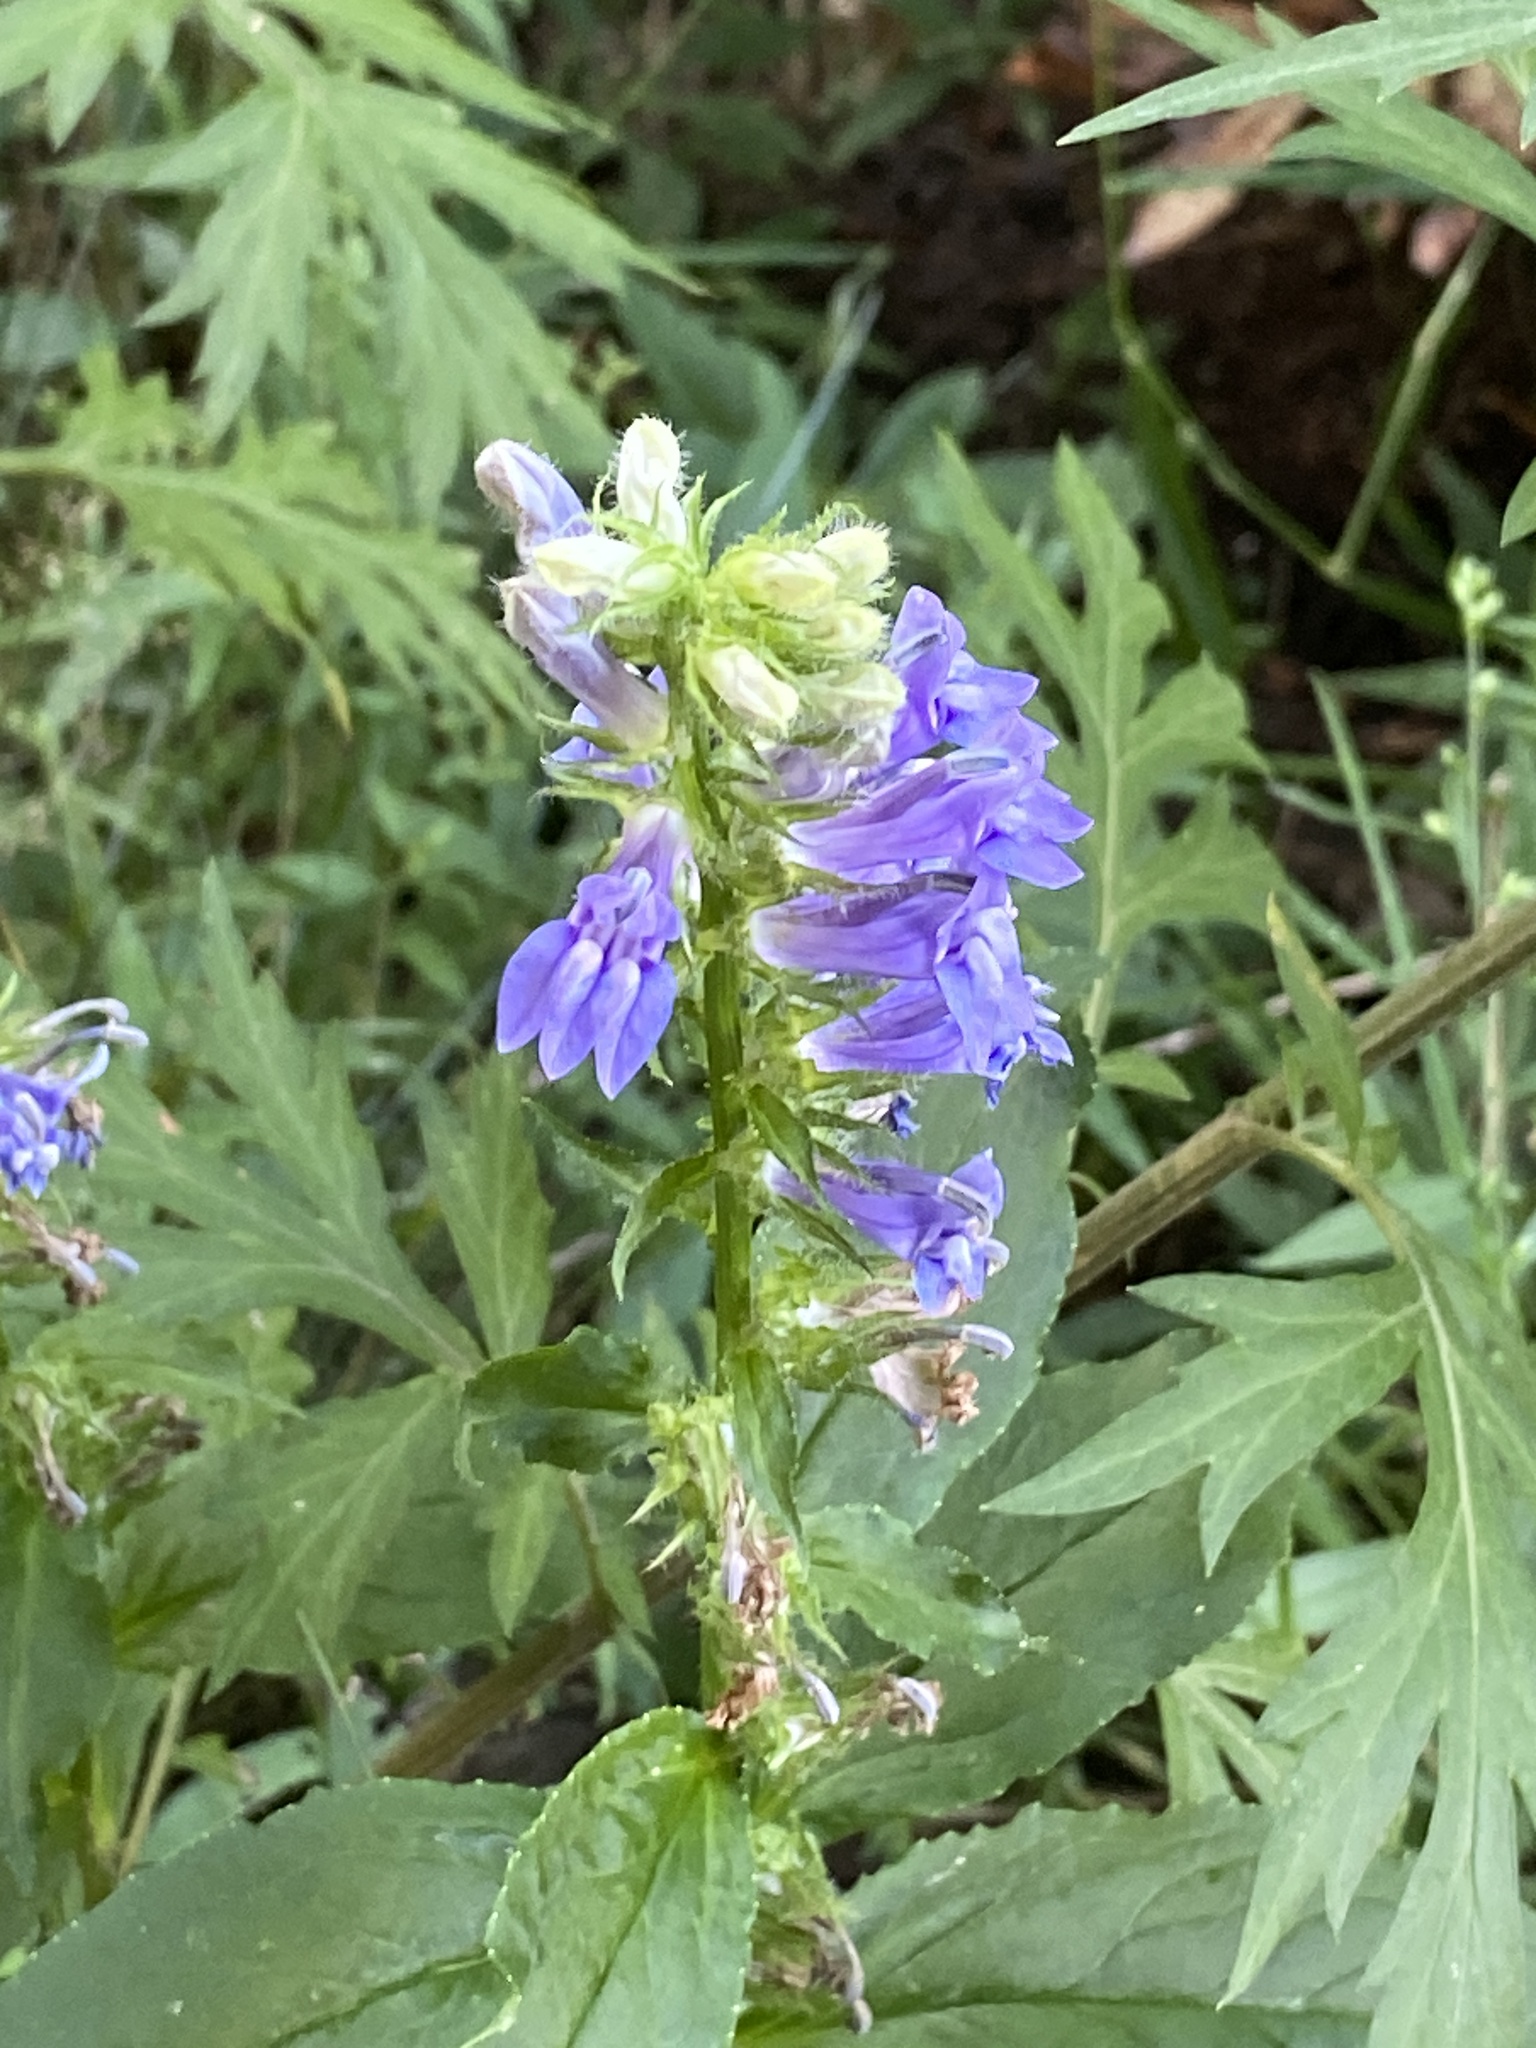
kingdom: Plantae
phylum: Tracheophyta
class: Magnoliopsida
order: Asterales
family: Campanulaceae
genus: Lobelia
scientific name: Lobelia siphilitica
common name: Great lobelia
